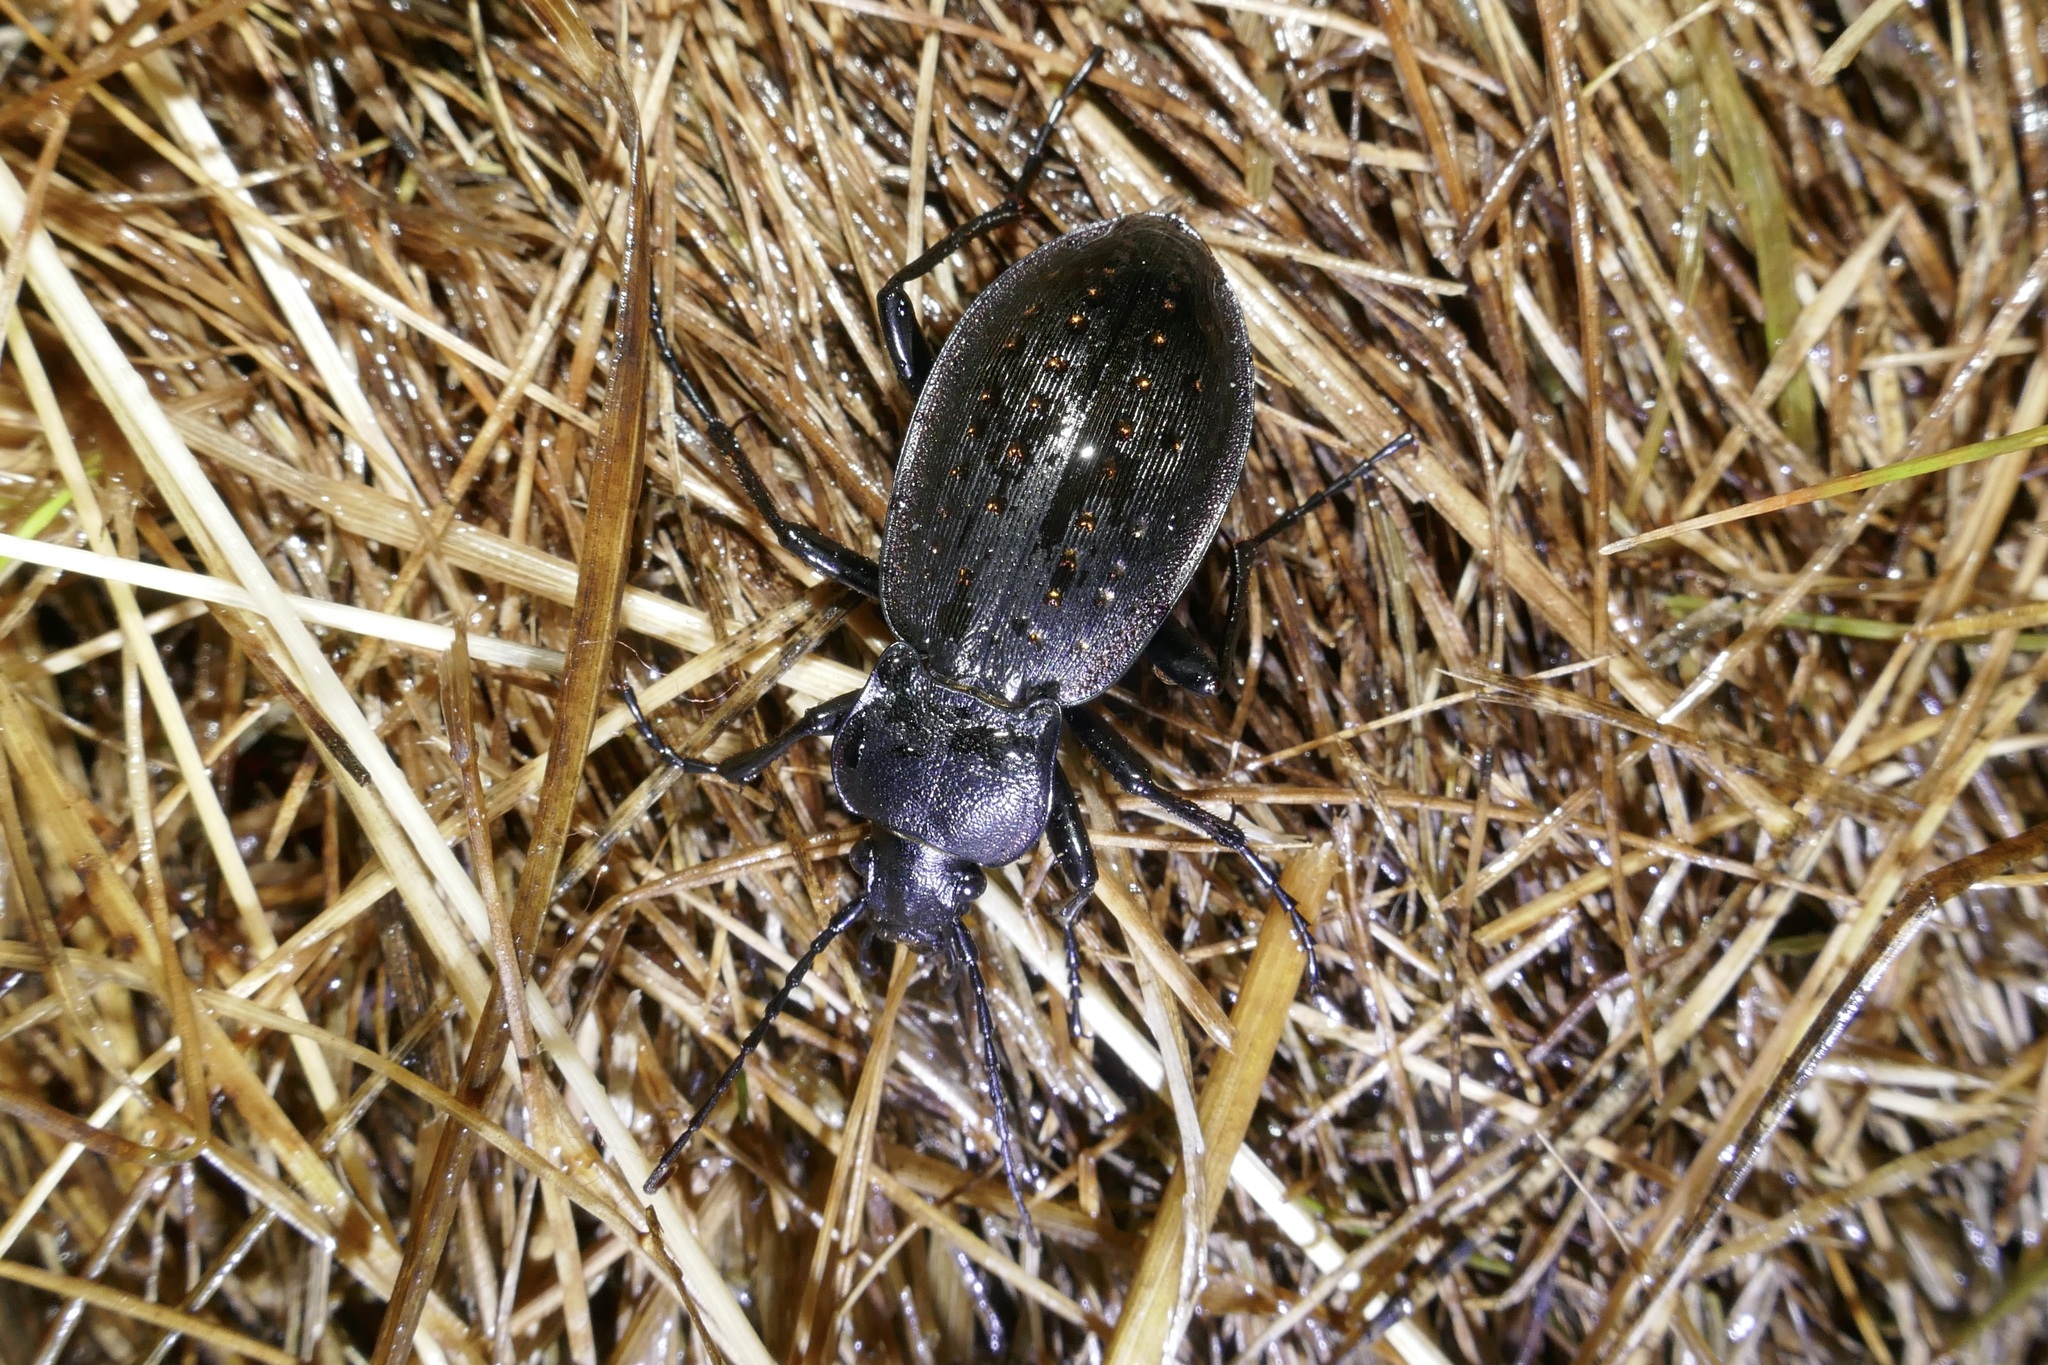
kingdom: Animalia
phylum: Arthropoda
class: Insecta
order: Coleoptera
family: Carabidae
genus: Carabus
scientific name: Carabus hortensis
